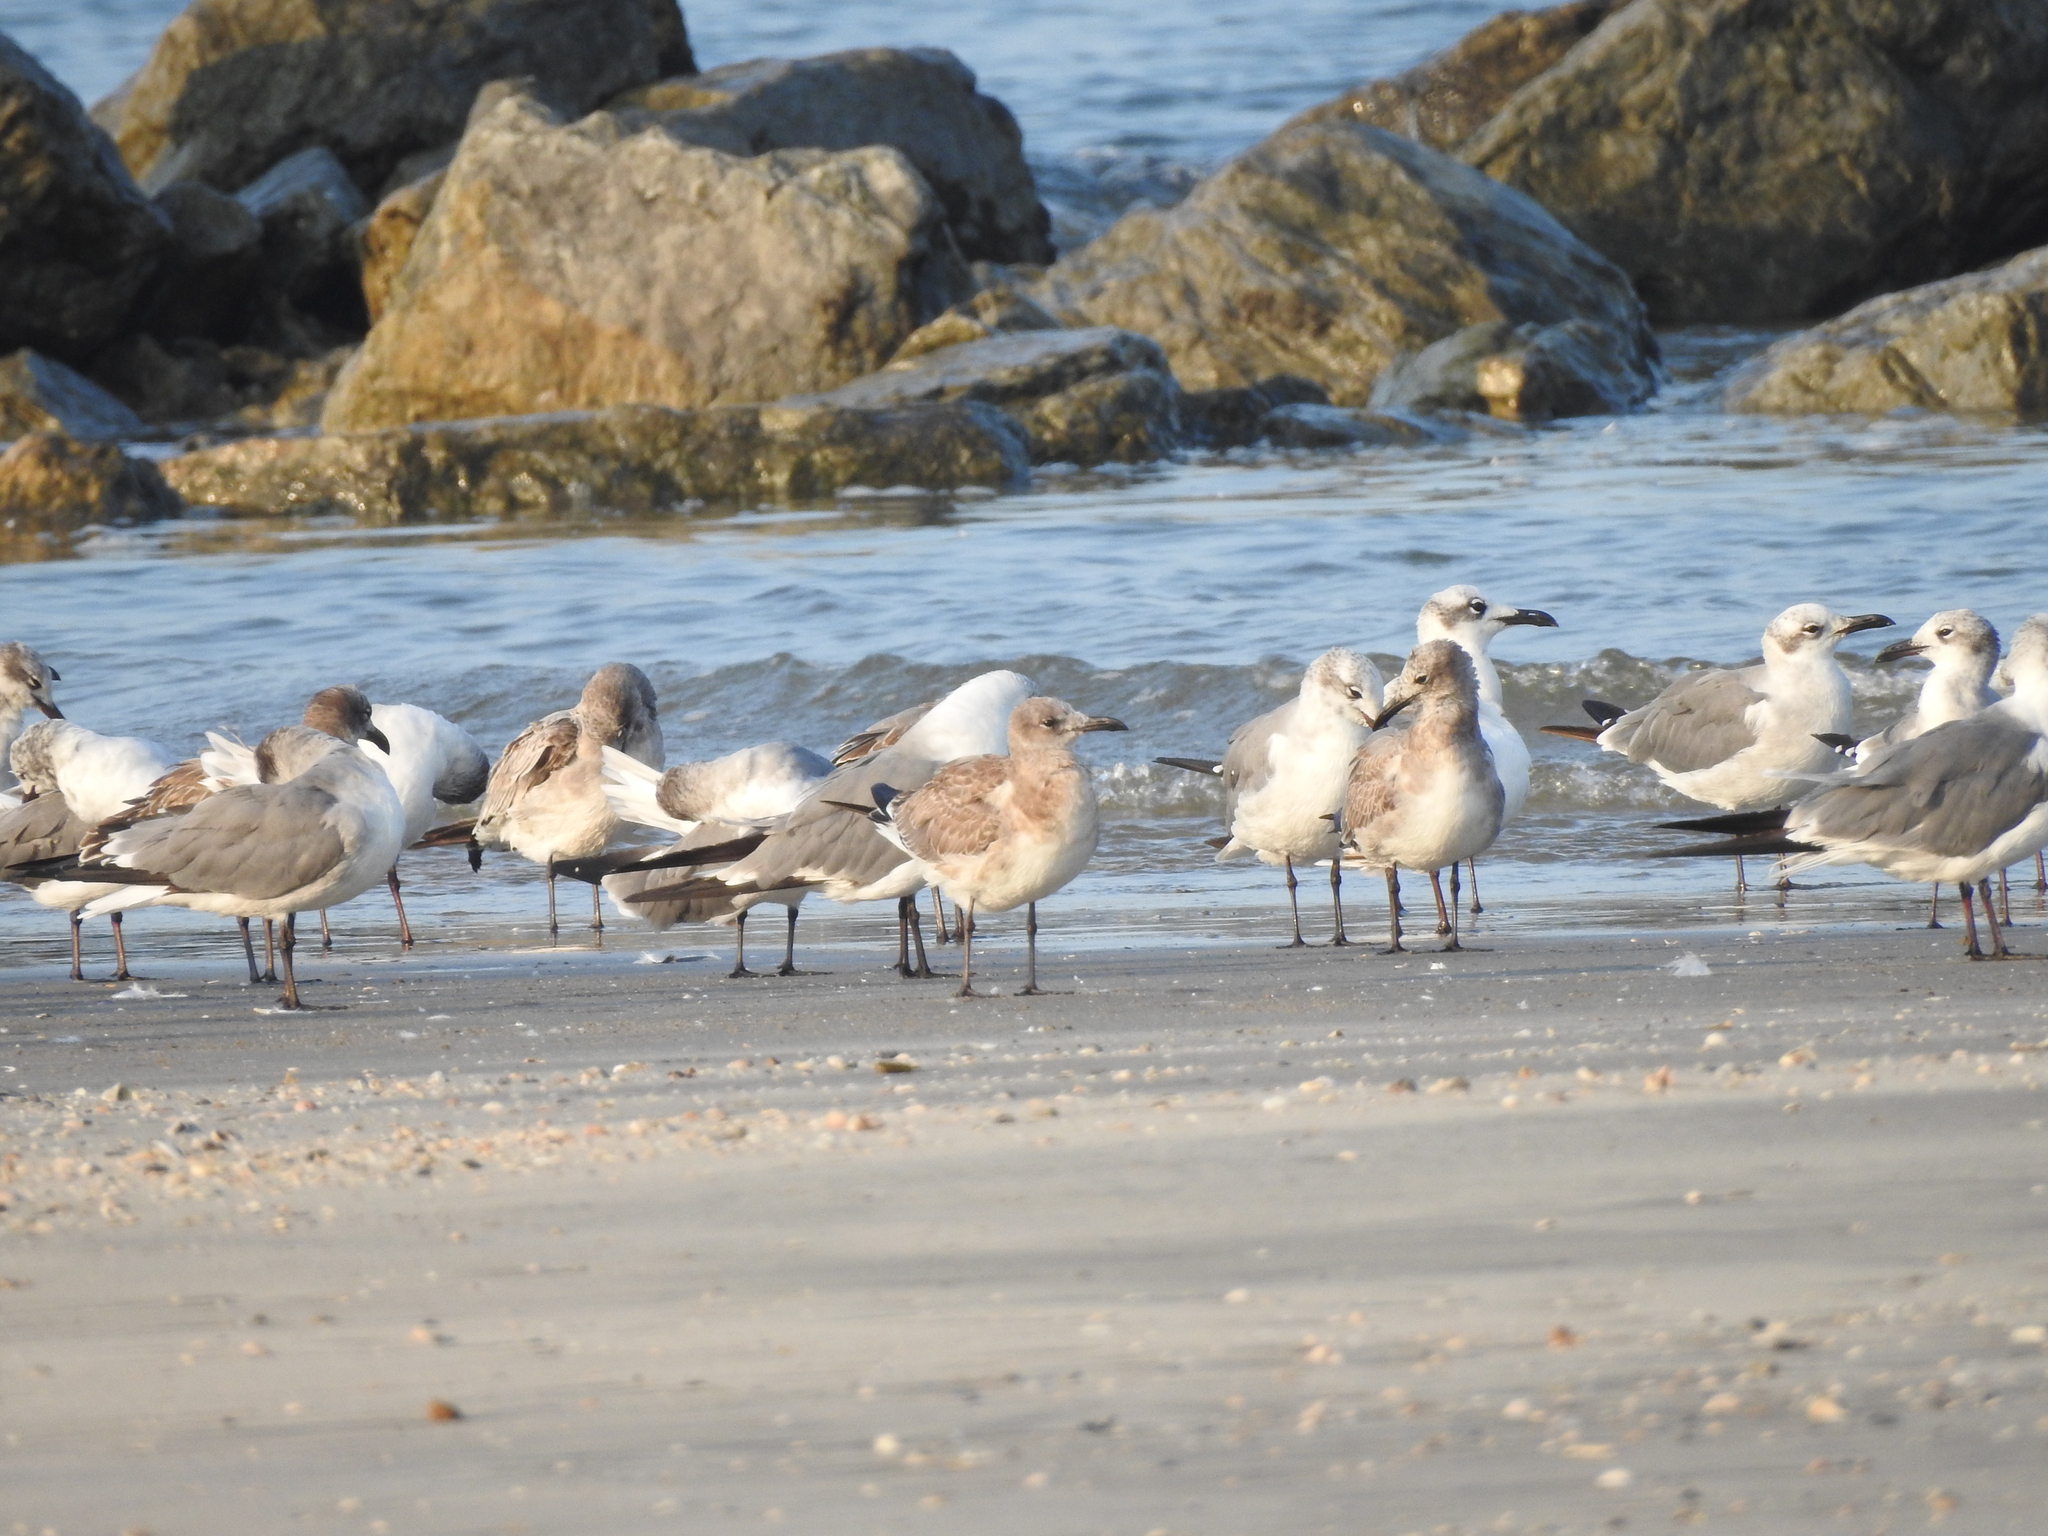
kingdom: Animalia
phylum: Chordata
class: Aves
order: Charadriiformes
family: Laridae
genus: Leucophaeus
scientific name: Leucophaeus atricilla
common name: Laughing gull
